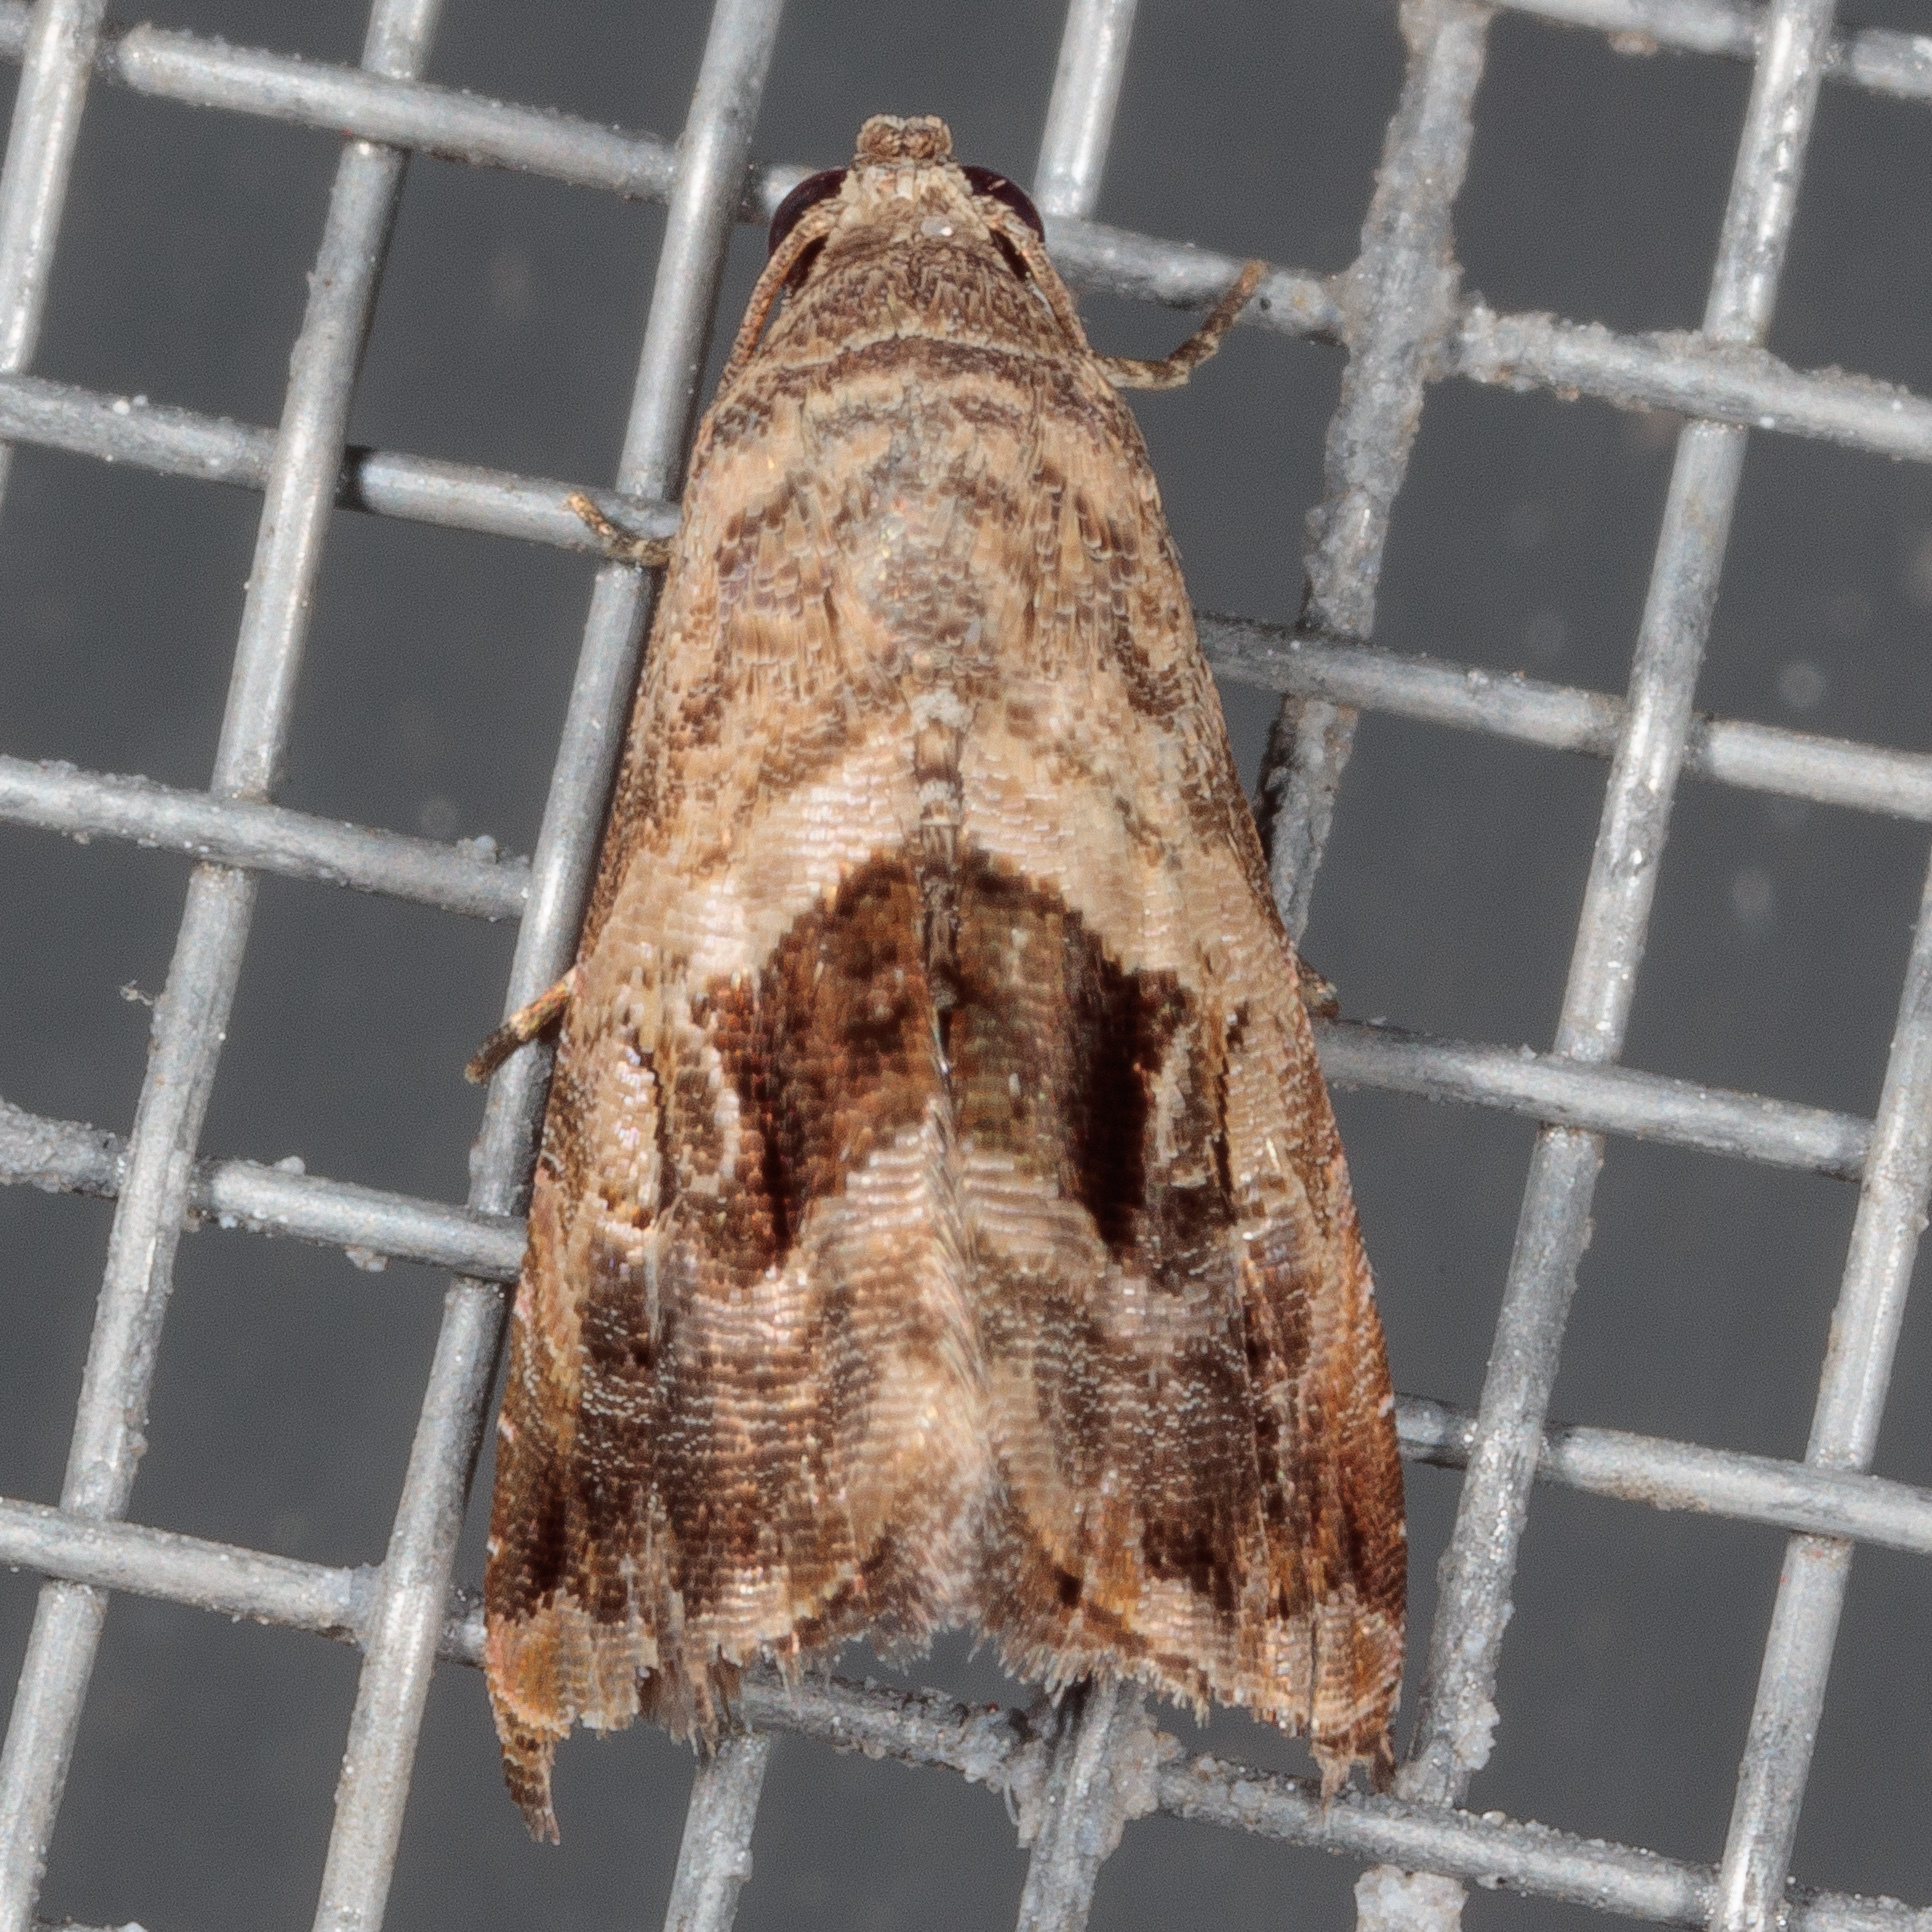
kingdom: Animalia
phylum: Arthropoda
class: Insecta
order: Lepidoptera
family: Noctuidae
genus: Tripudia
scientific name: Tripudia quadrifera
